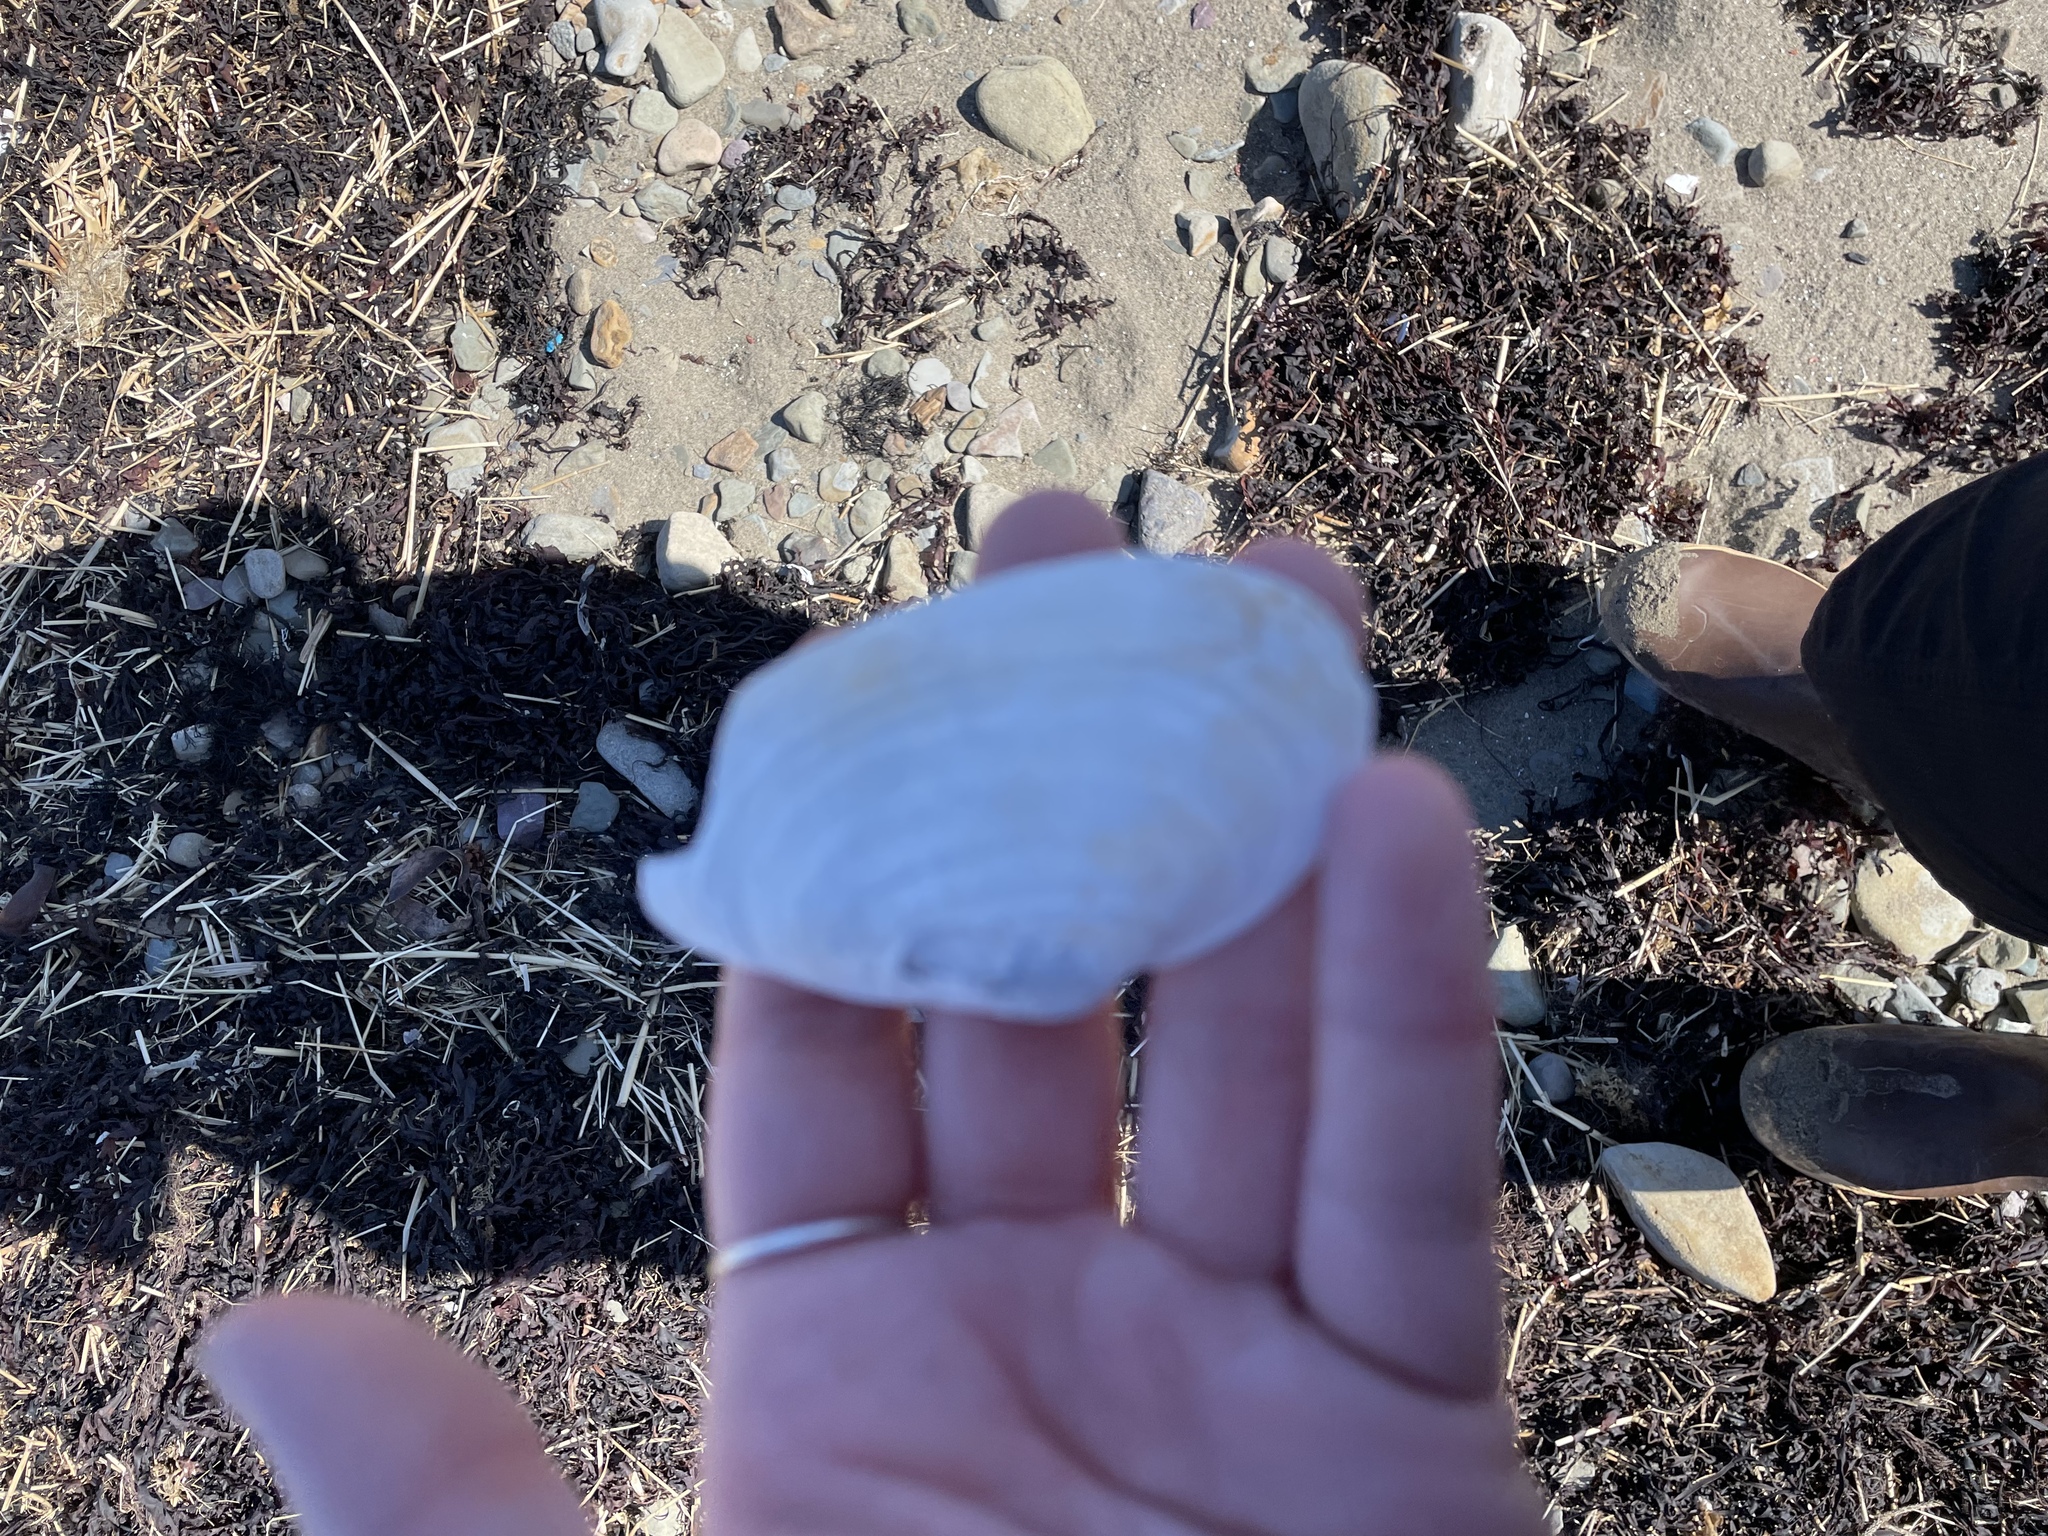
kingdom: Animalia
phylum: Mollusca
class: Bivalvia
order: Myida
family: Myidae
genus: Mya
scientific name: Mya arenaria
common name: Soft-shelled clam
